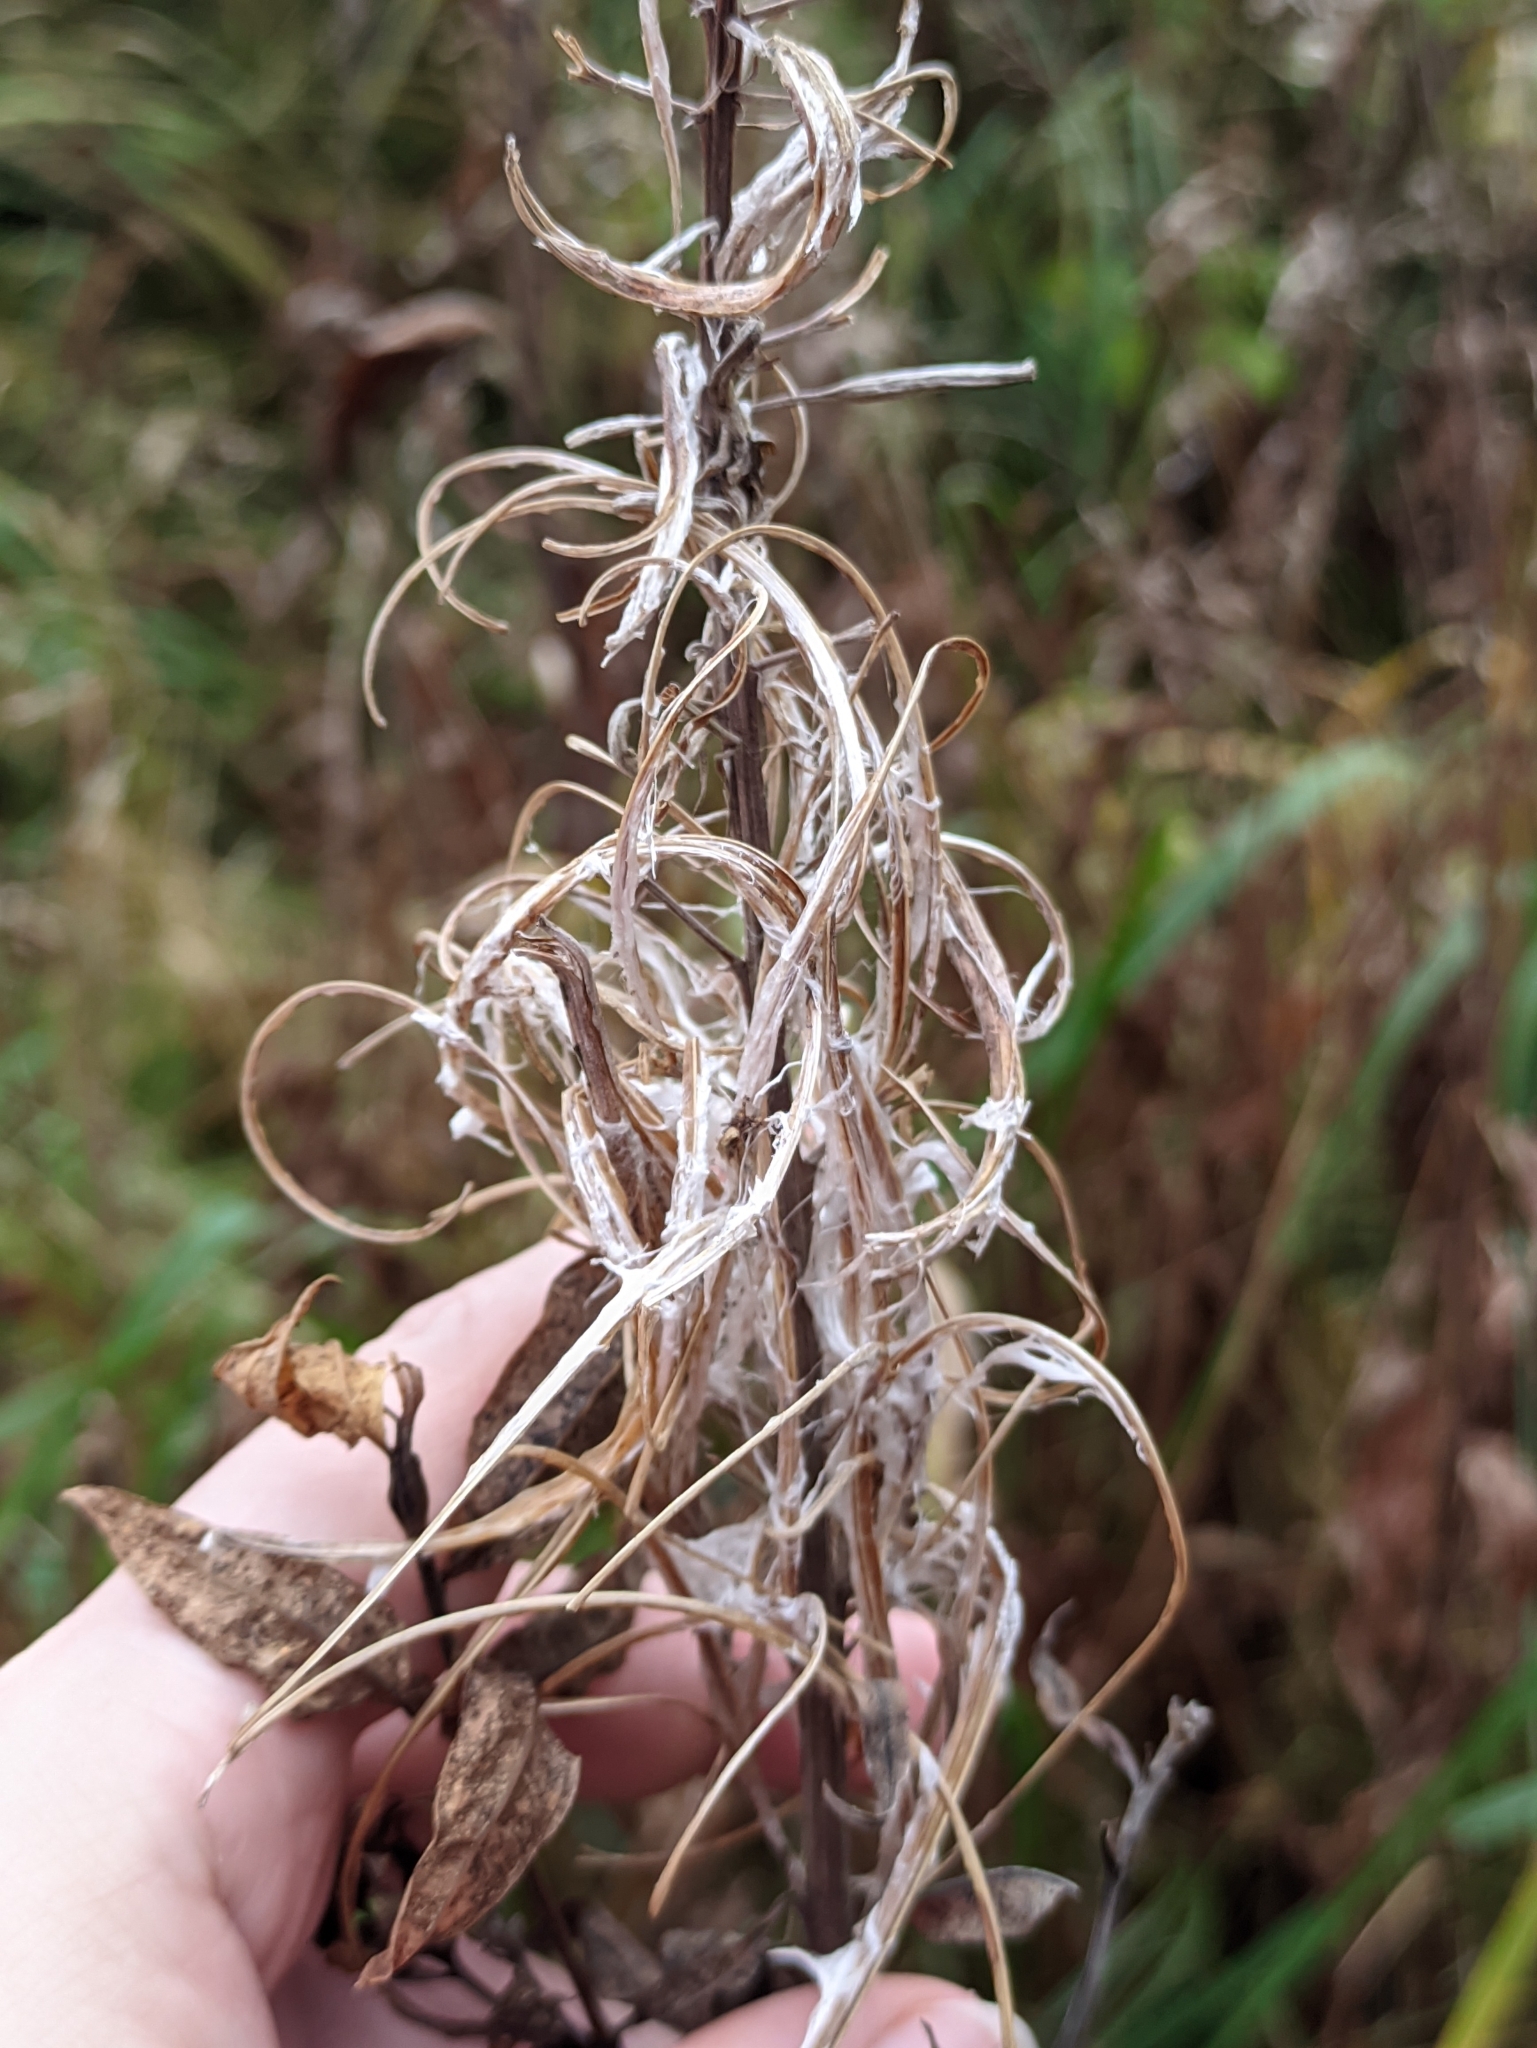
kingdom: Plantae
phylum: Tracheophyta
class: Magnoliopsida
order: Myrtales
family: Onagraceae
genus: Chamaenerion
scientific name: Chamaenerion angustifolium
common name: Fireweed
